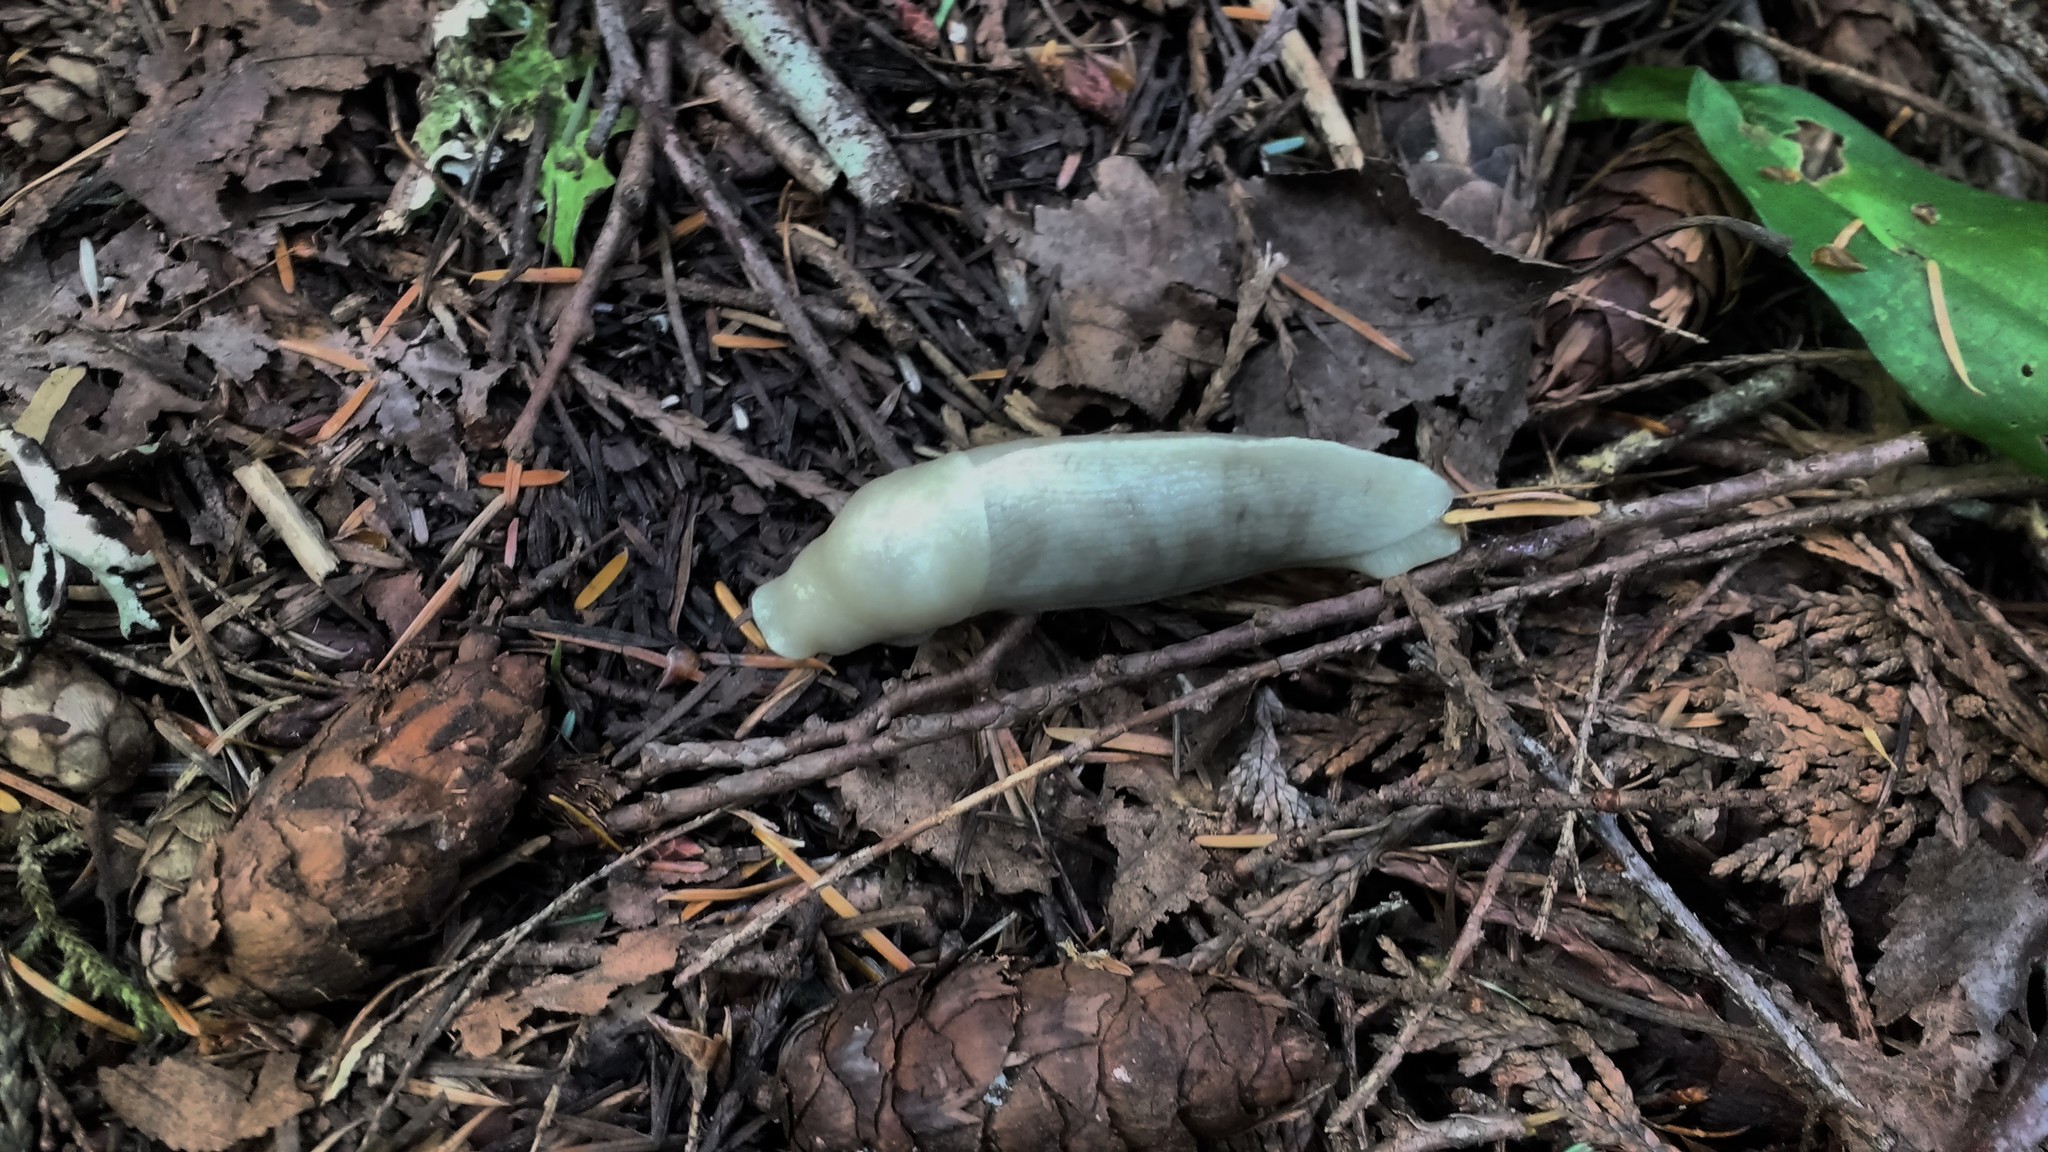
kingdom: Animalia
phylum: Mollusca
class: Gastropoda
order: Stylommatophora
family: Ariolimacidae
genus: Ariolimax
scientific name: Ariolimax columbianus
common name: Pacific banana slug
